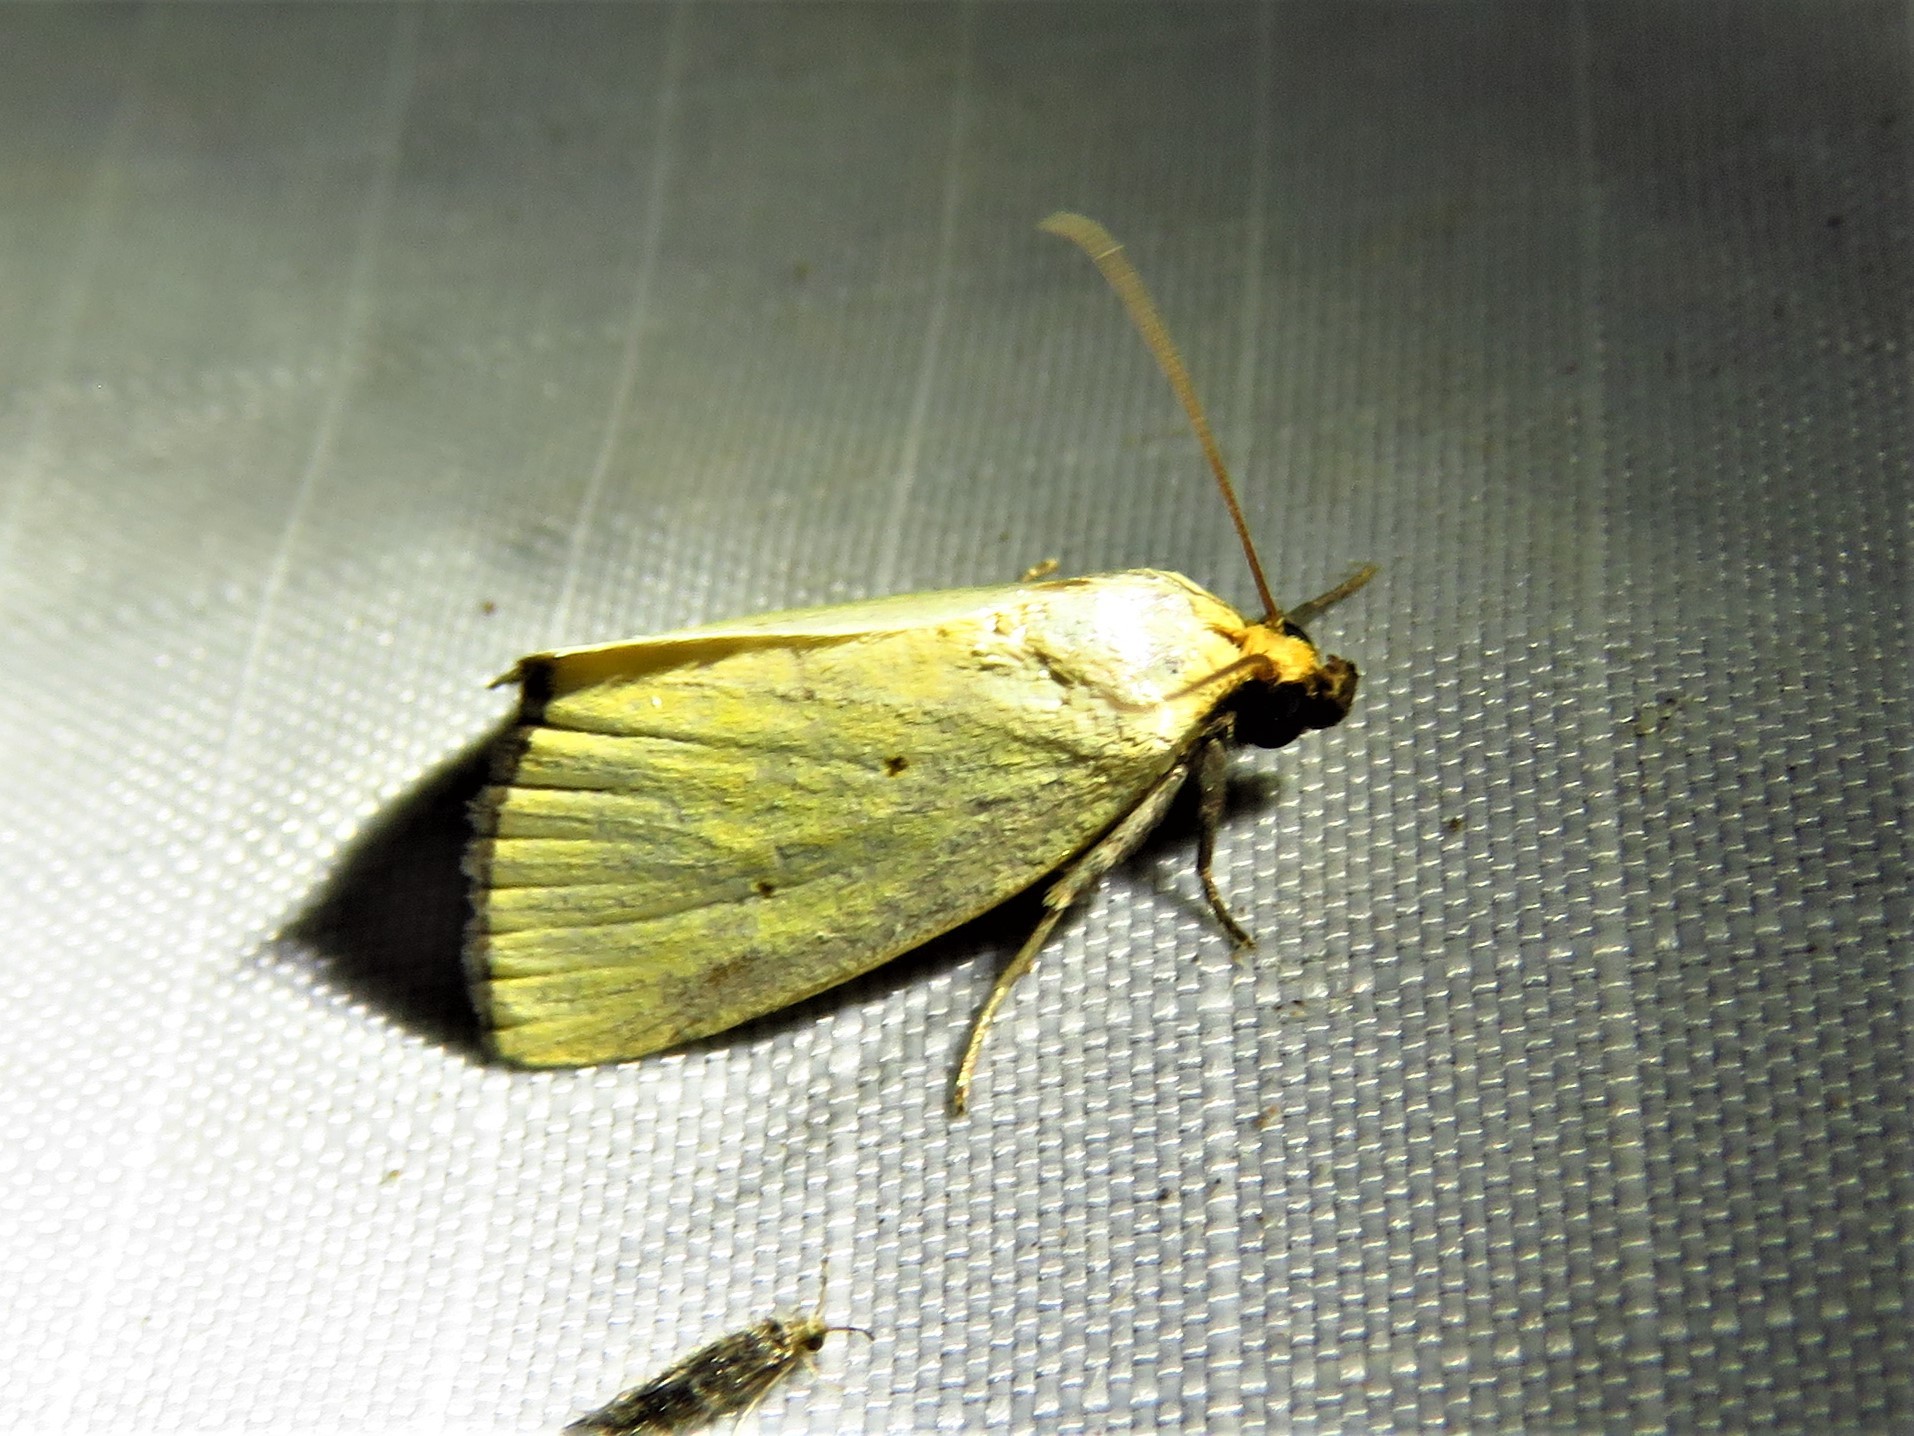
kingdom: Animalia
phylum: Arthropoda
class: Insecta
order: Lepidoptera
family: Noctuidae
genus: Marimatha
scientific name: Marimatha nigrofimbria
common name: Black-bordered lemon moth
